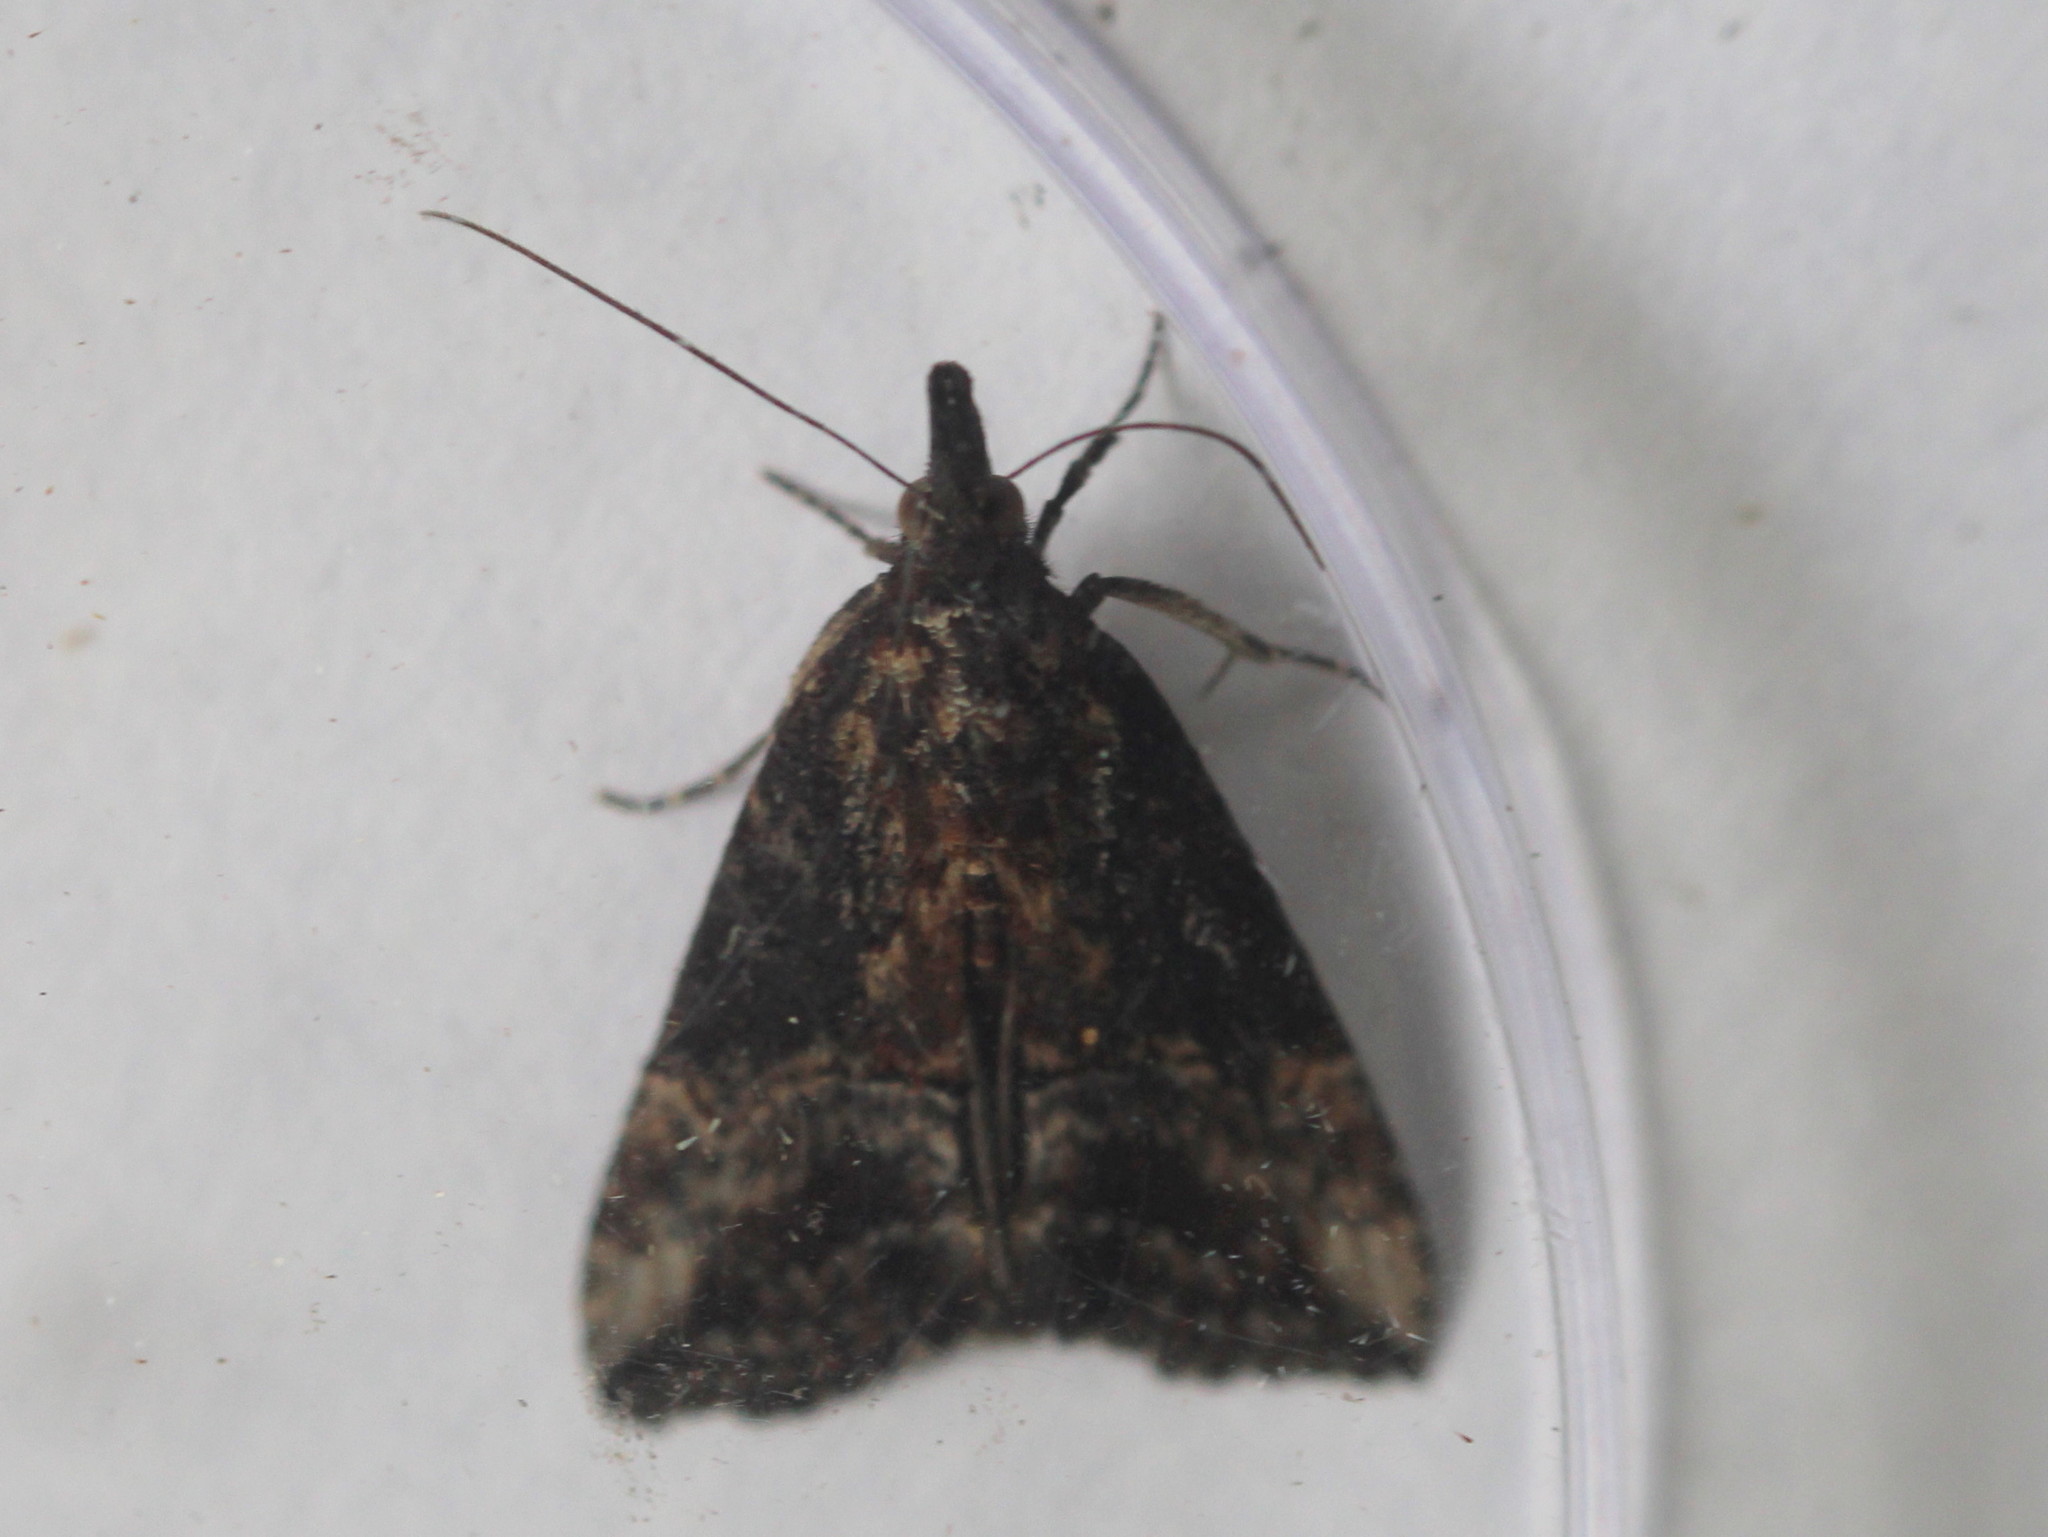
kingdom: Animalia
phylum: Arthropoda
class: Insecta
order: Lepidoptera
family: Erebidae
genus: Hypena
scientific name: Hypena scabra
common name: Green cloverworm
